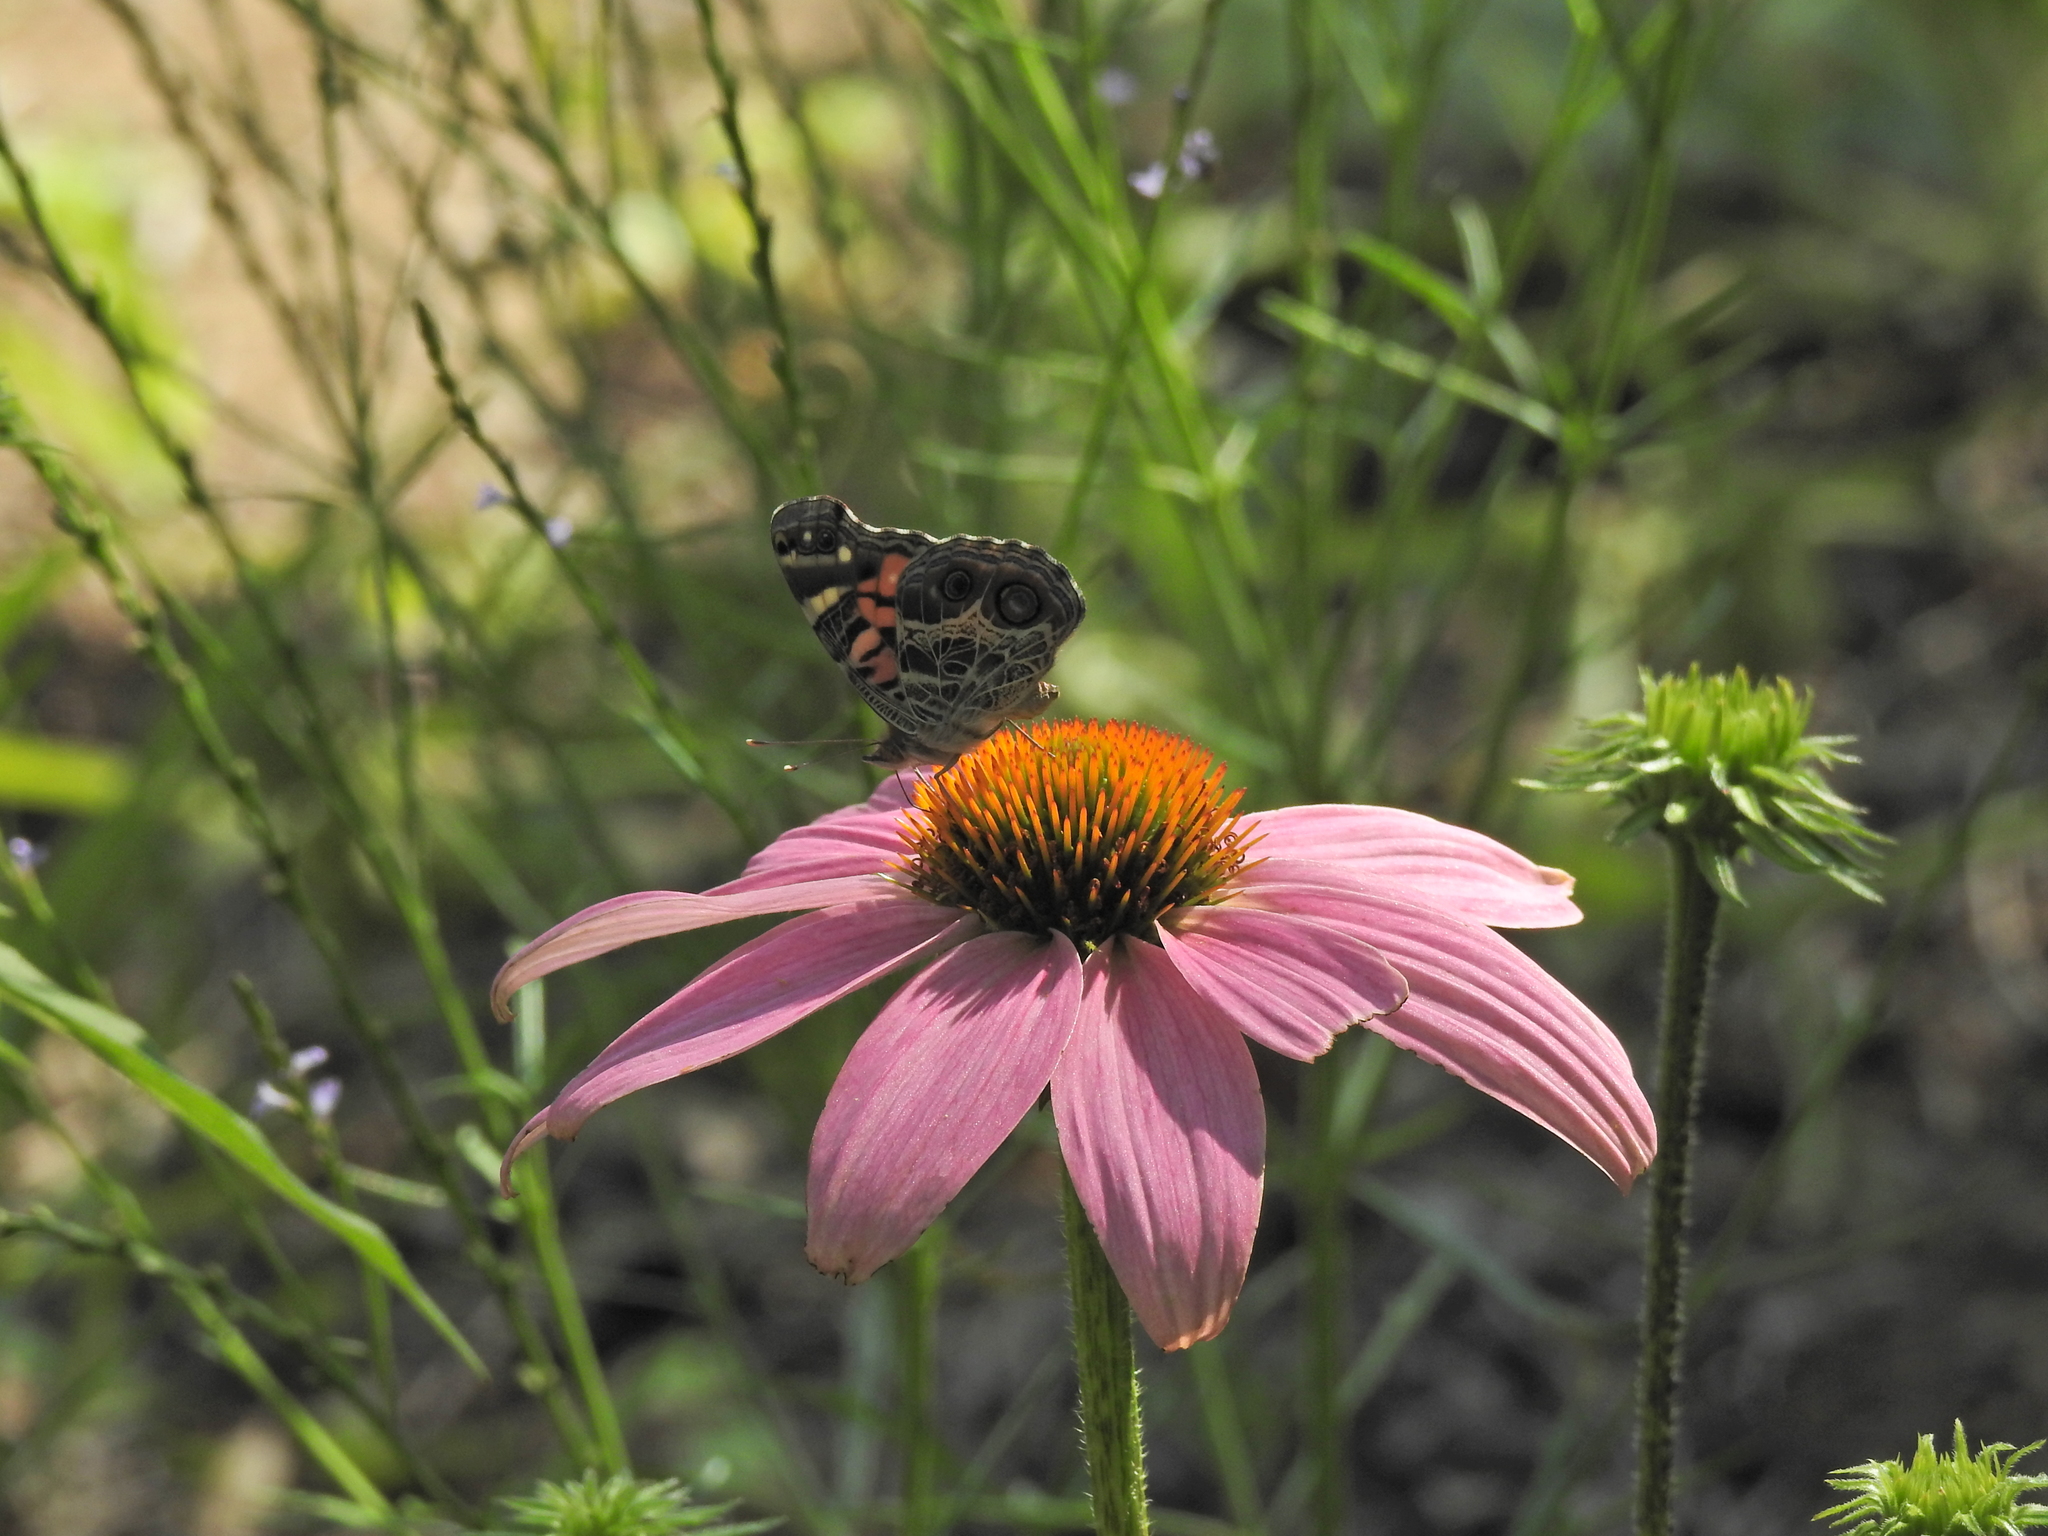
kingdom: Animalia
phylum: Arthropoda
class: Insecta
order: Lepidoptera
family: Nymphalidae
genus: Vanessa
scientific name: Vanessa virginiensis
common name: American lady
